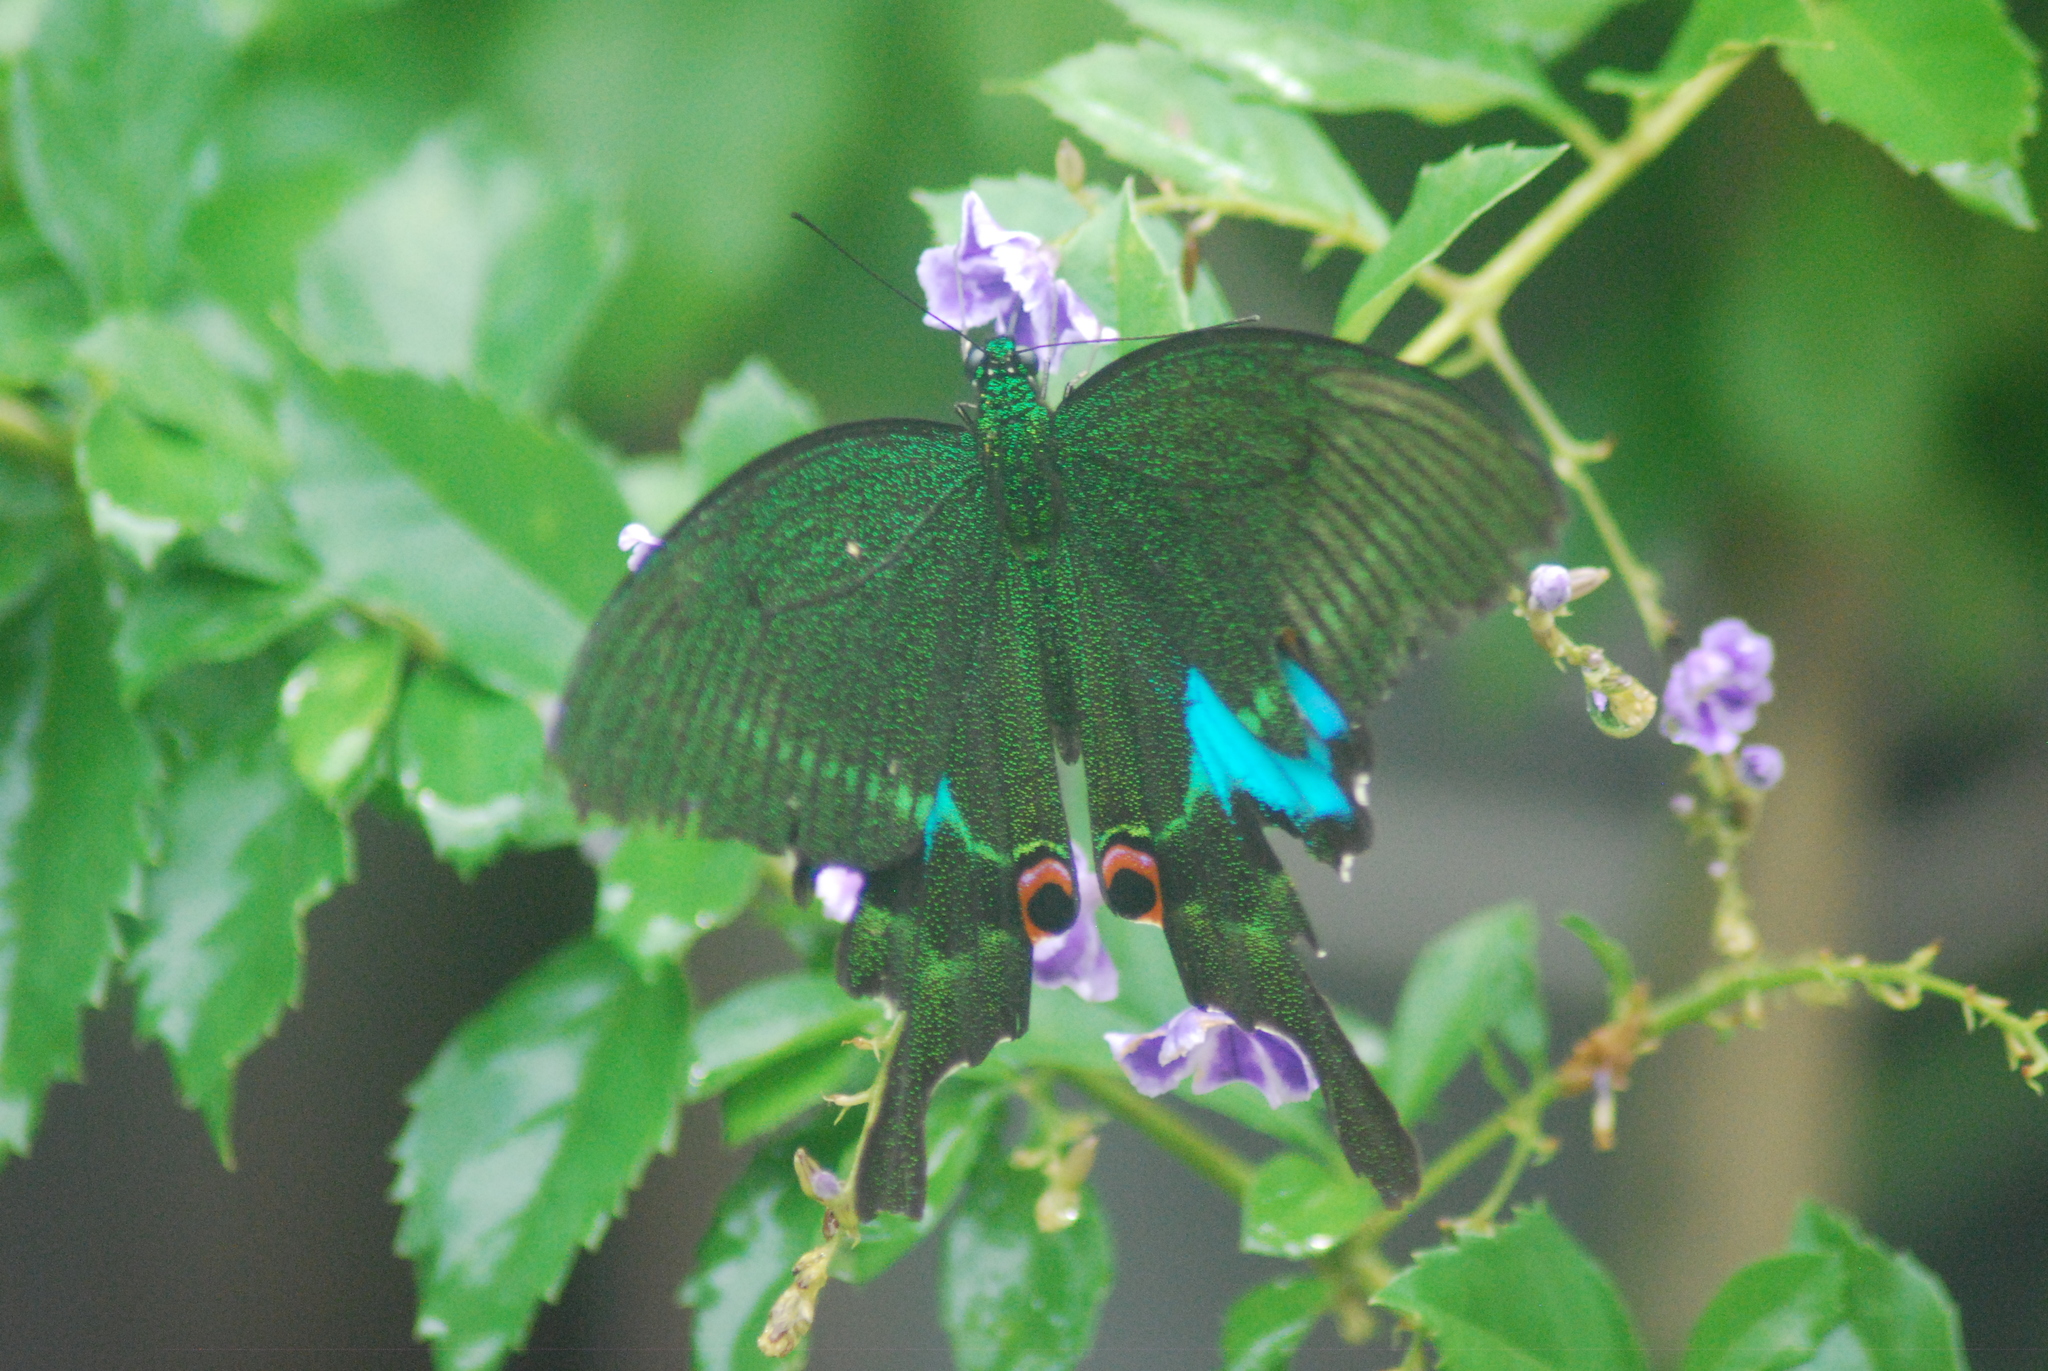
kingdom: Animalia
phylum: Arthropoda
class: Insecta
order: Lepidoptera
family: Papilionidae
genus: Papilio
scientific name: Papilio paris
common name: Paris peacock
